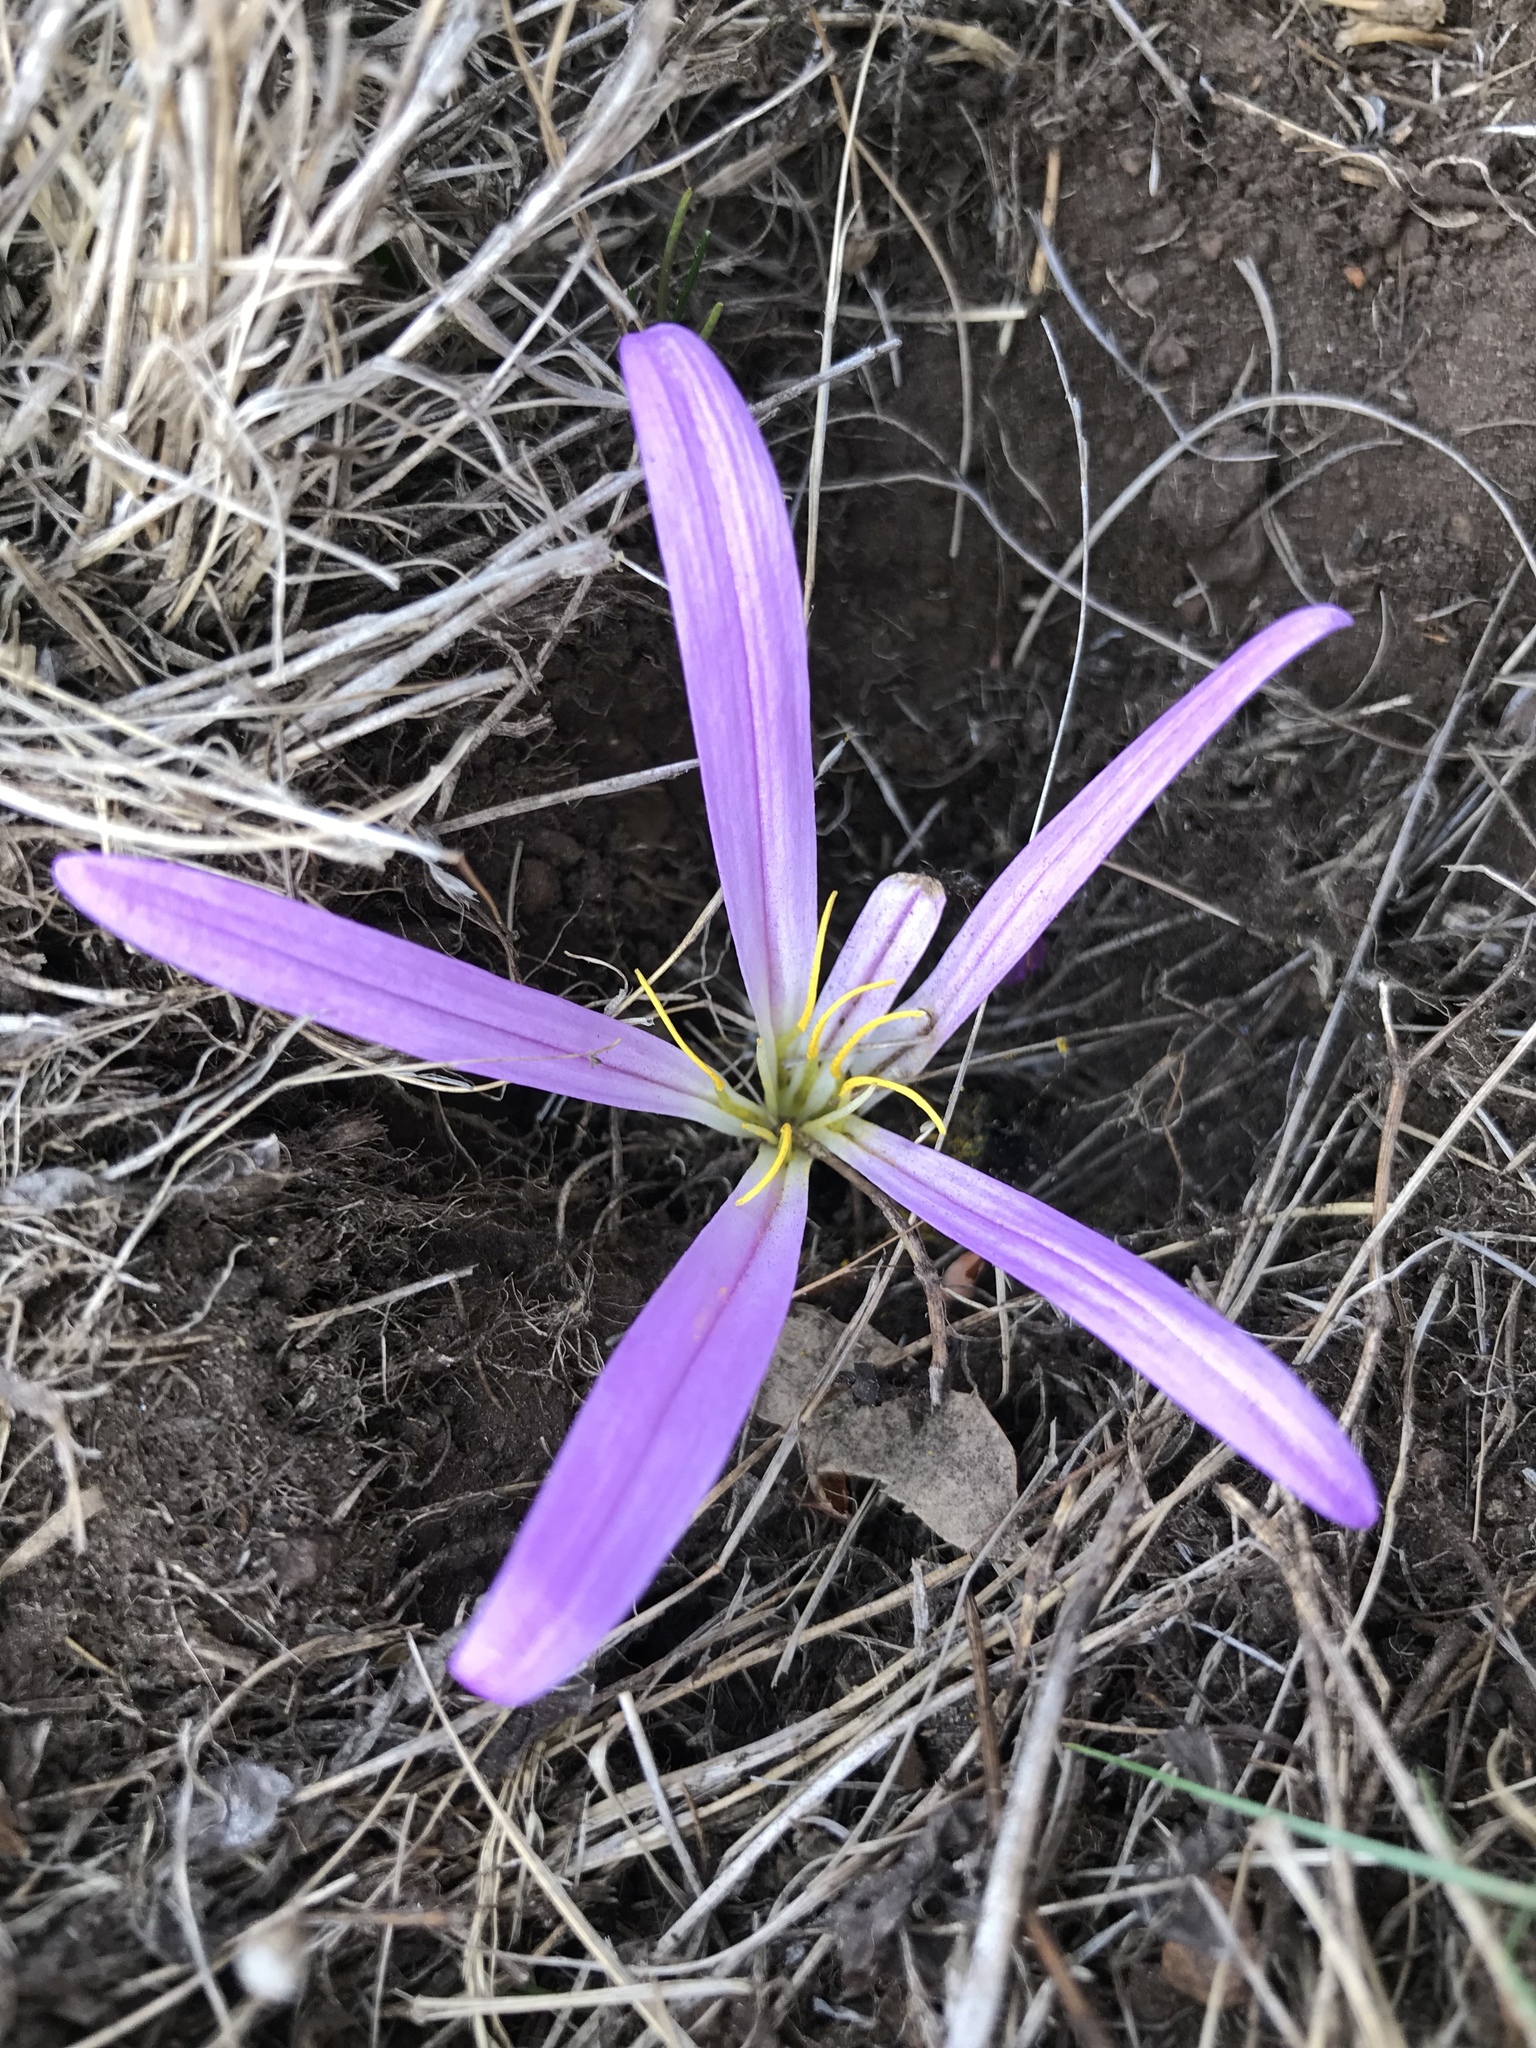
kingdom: Plantae
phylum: Tracheophyta
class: Liliopsida
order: Liliales
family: Colchicaceae
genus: Colchicum
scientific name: Colchicum montanum
